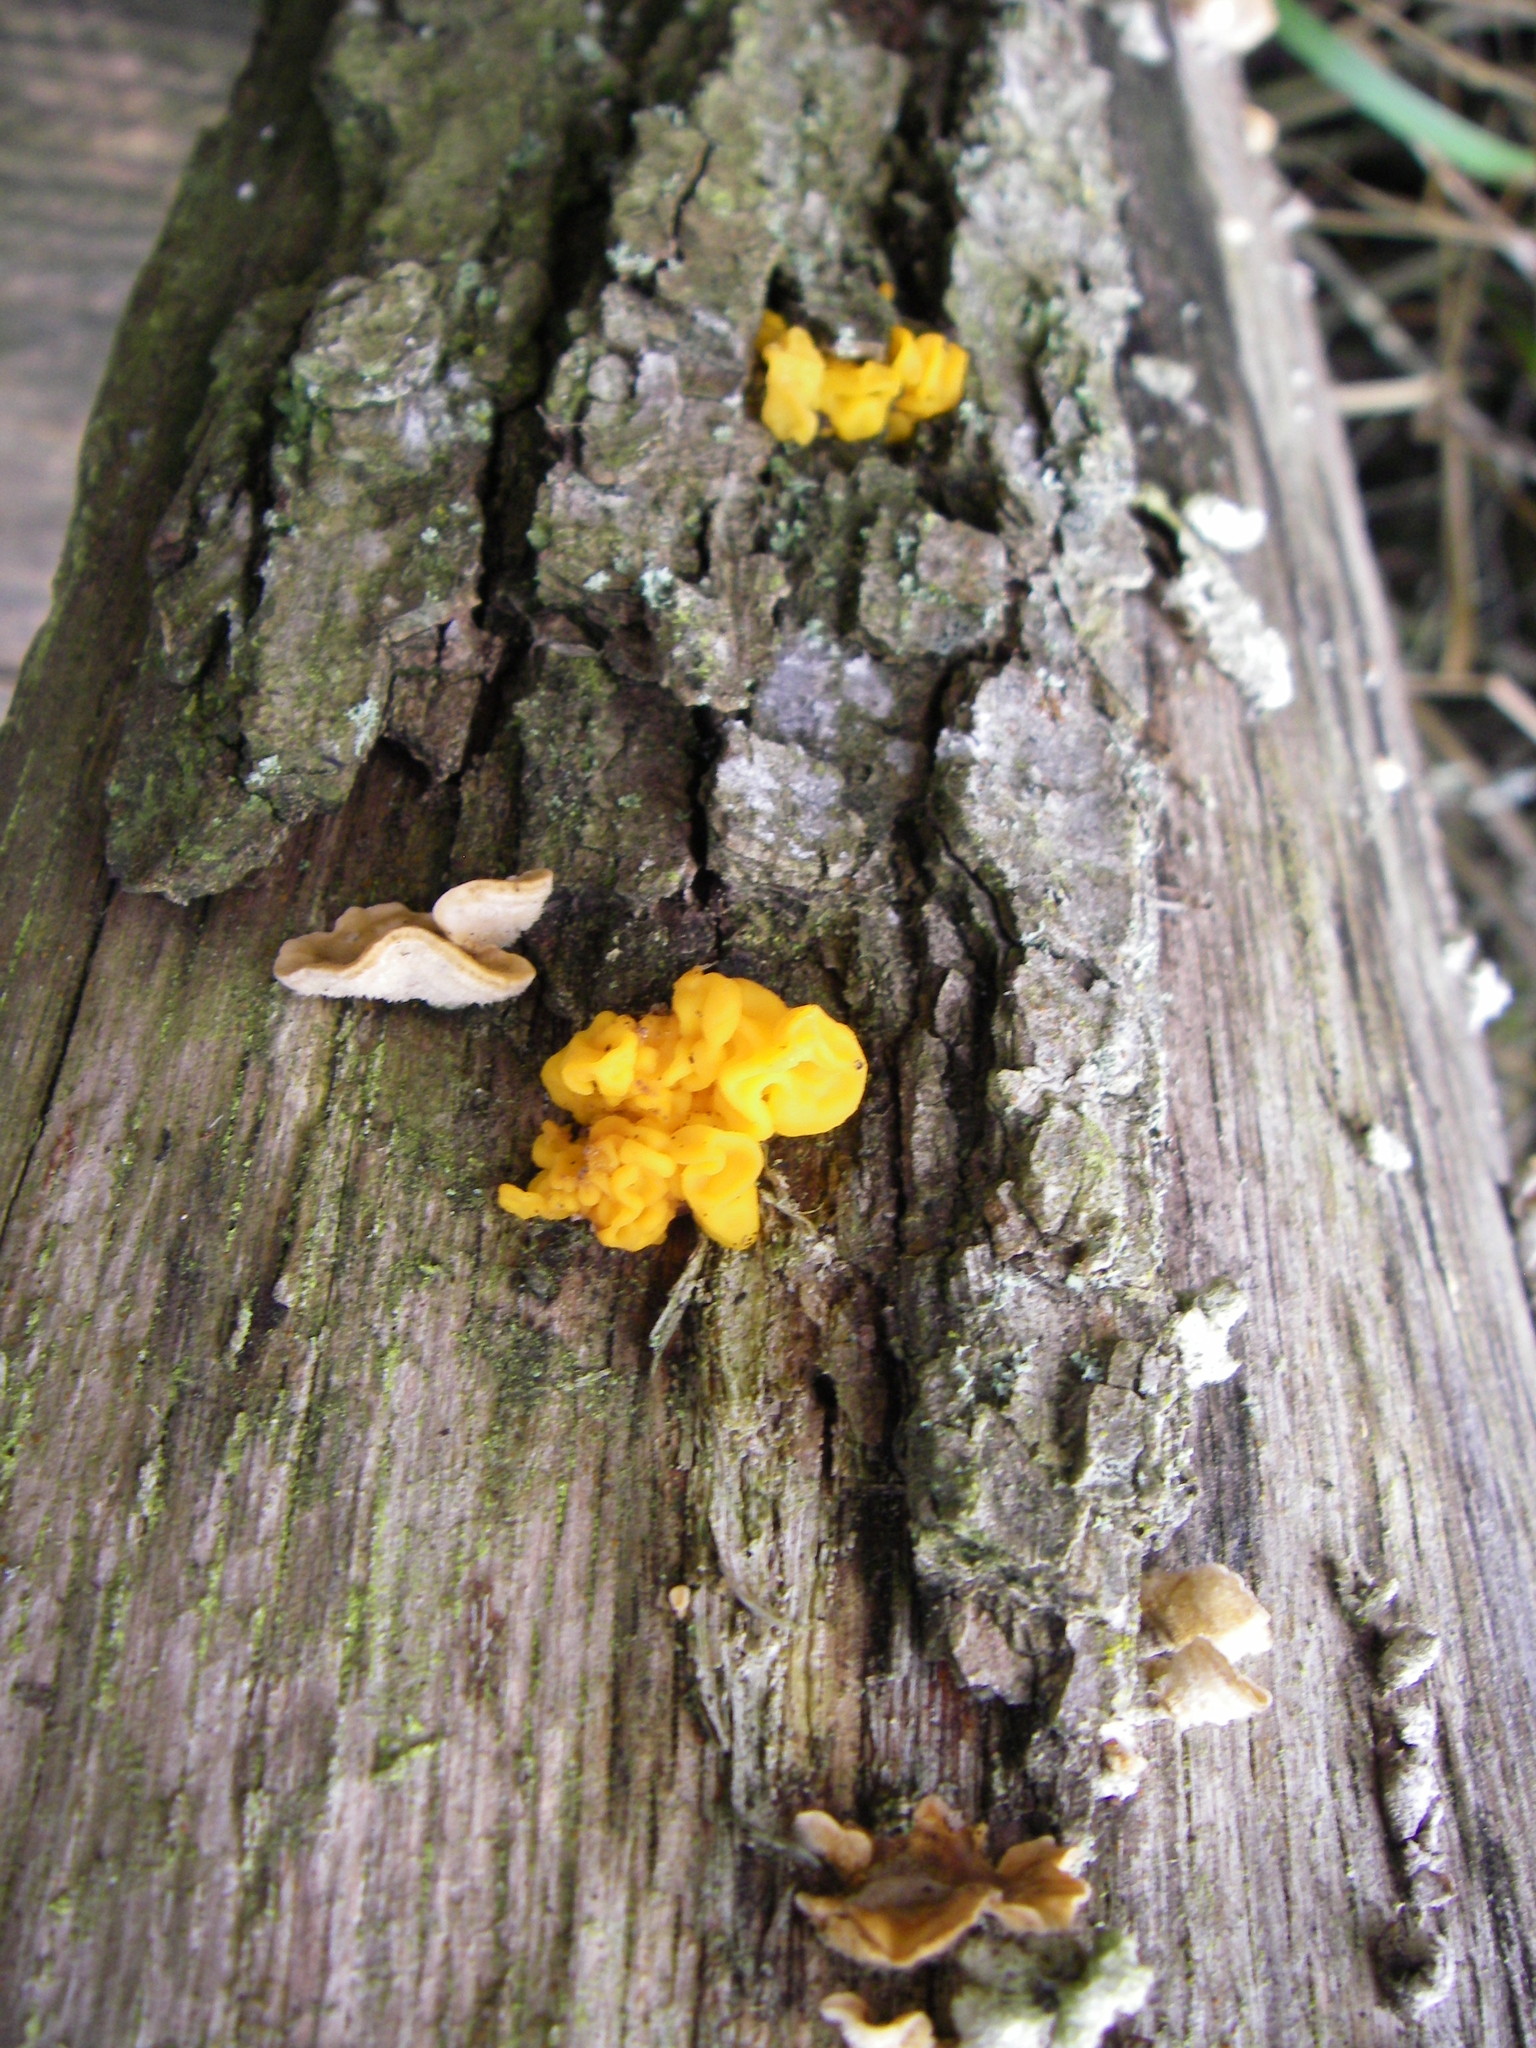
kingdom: Fungi
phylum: Basidiomycota
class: Tremellomycetes
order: Tremellales
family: Naemateliaceae
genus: Naematelia
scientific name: Naematelia aurantia
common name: Golden ear
